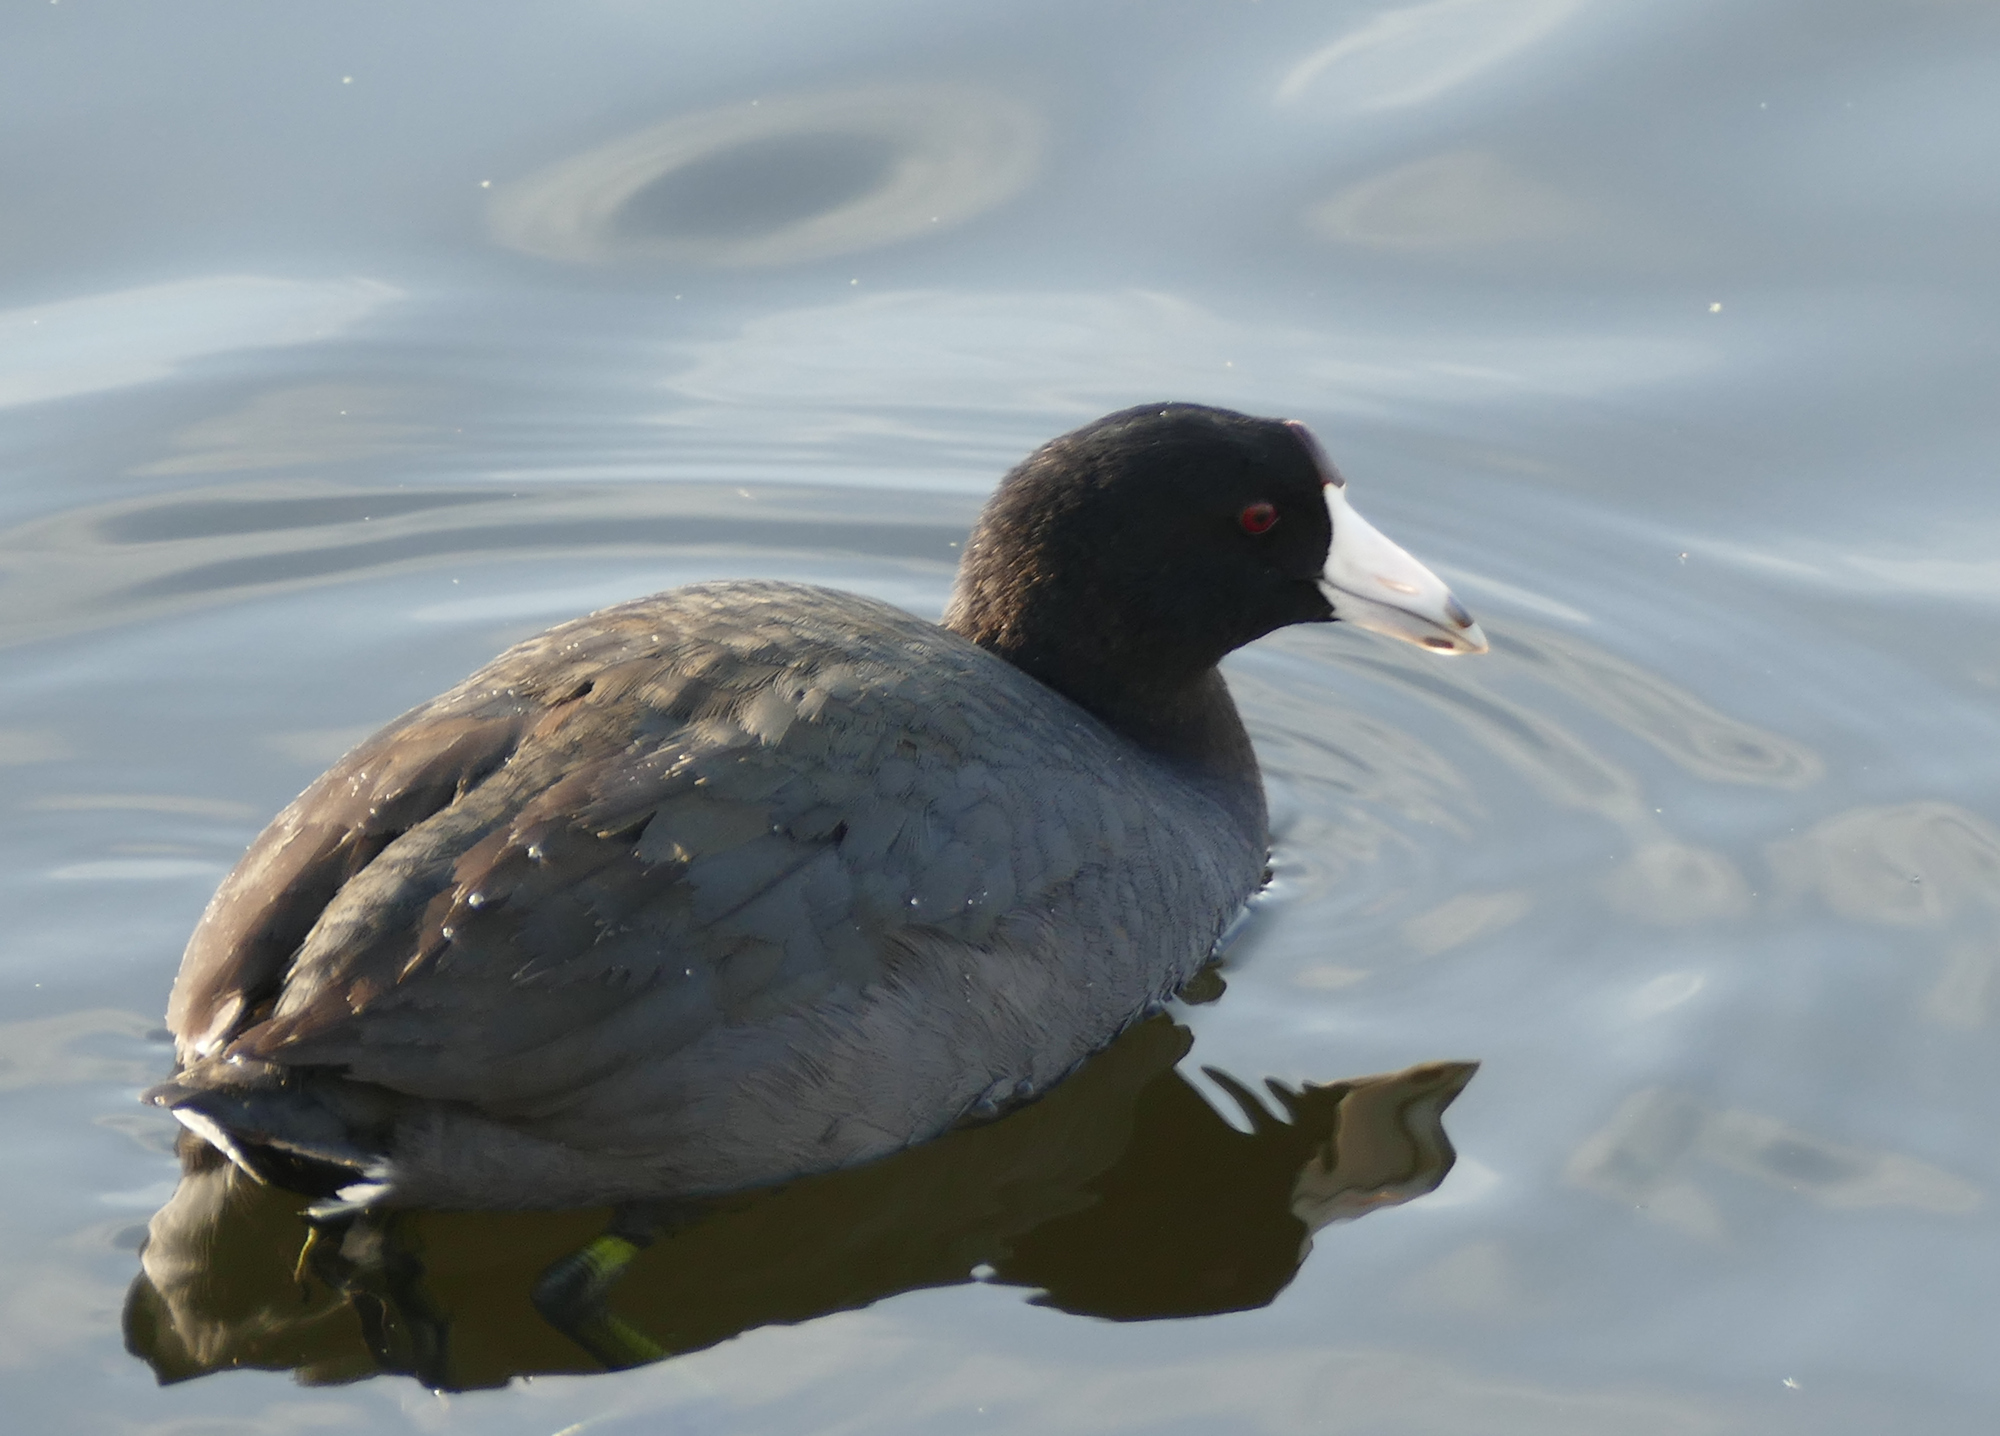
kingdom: Animalia
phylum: Chordata
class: Aves
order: Gruiformes
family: Rallidae
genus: Fulica
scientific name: Fulica americana
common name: American coot
